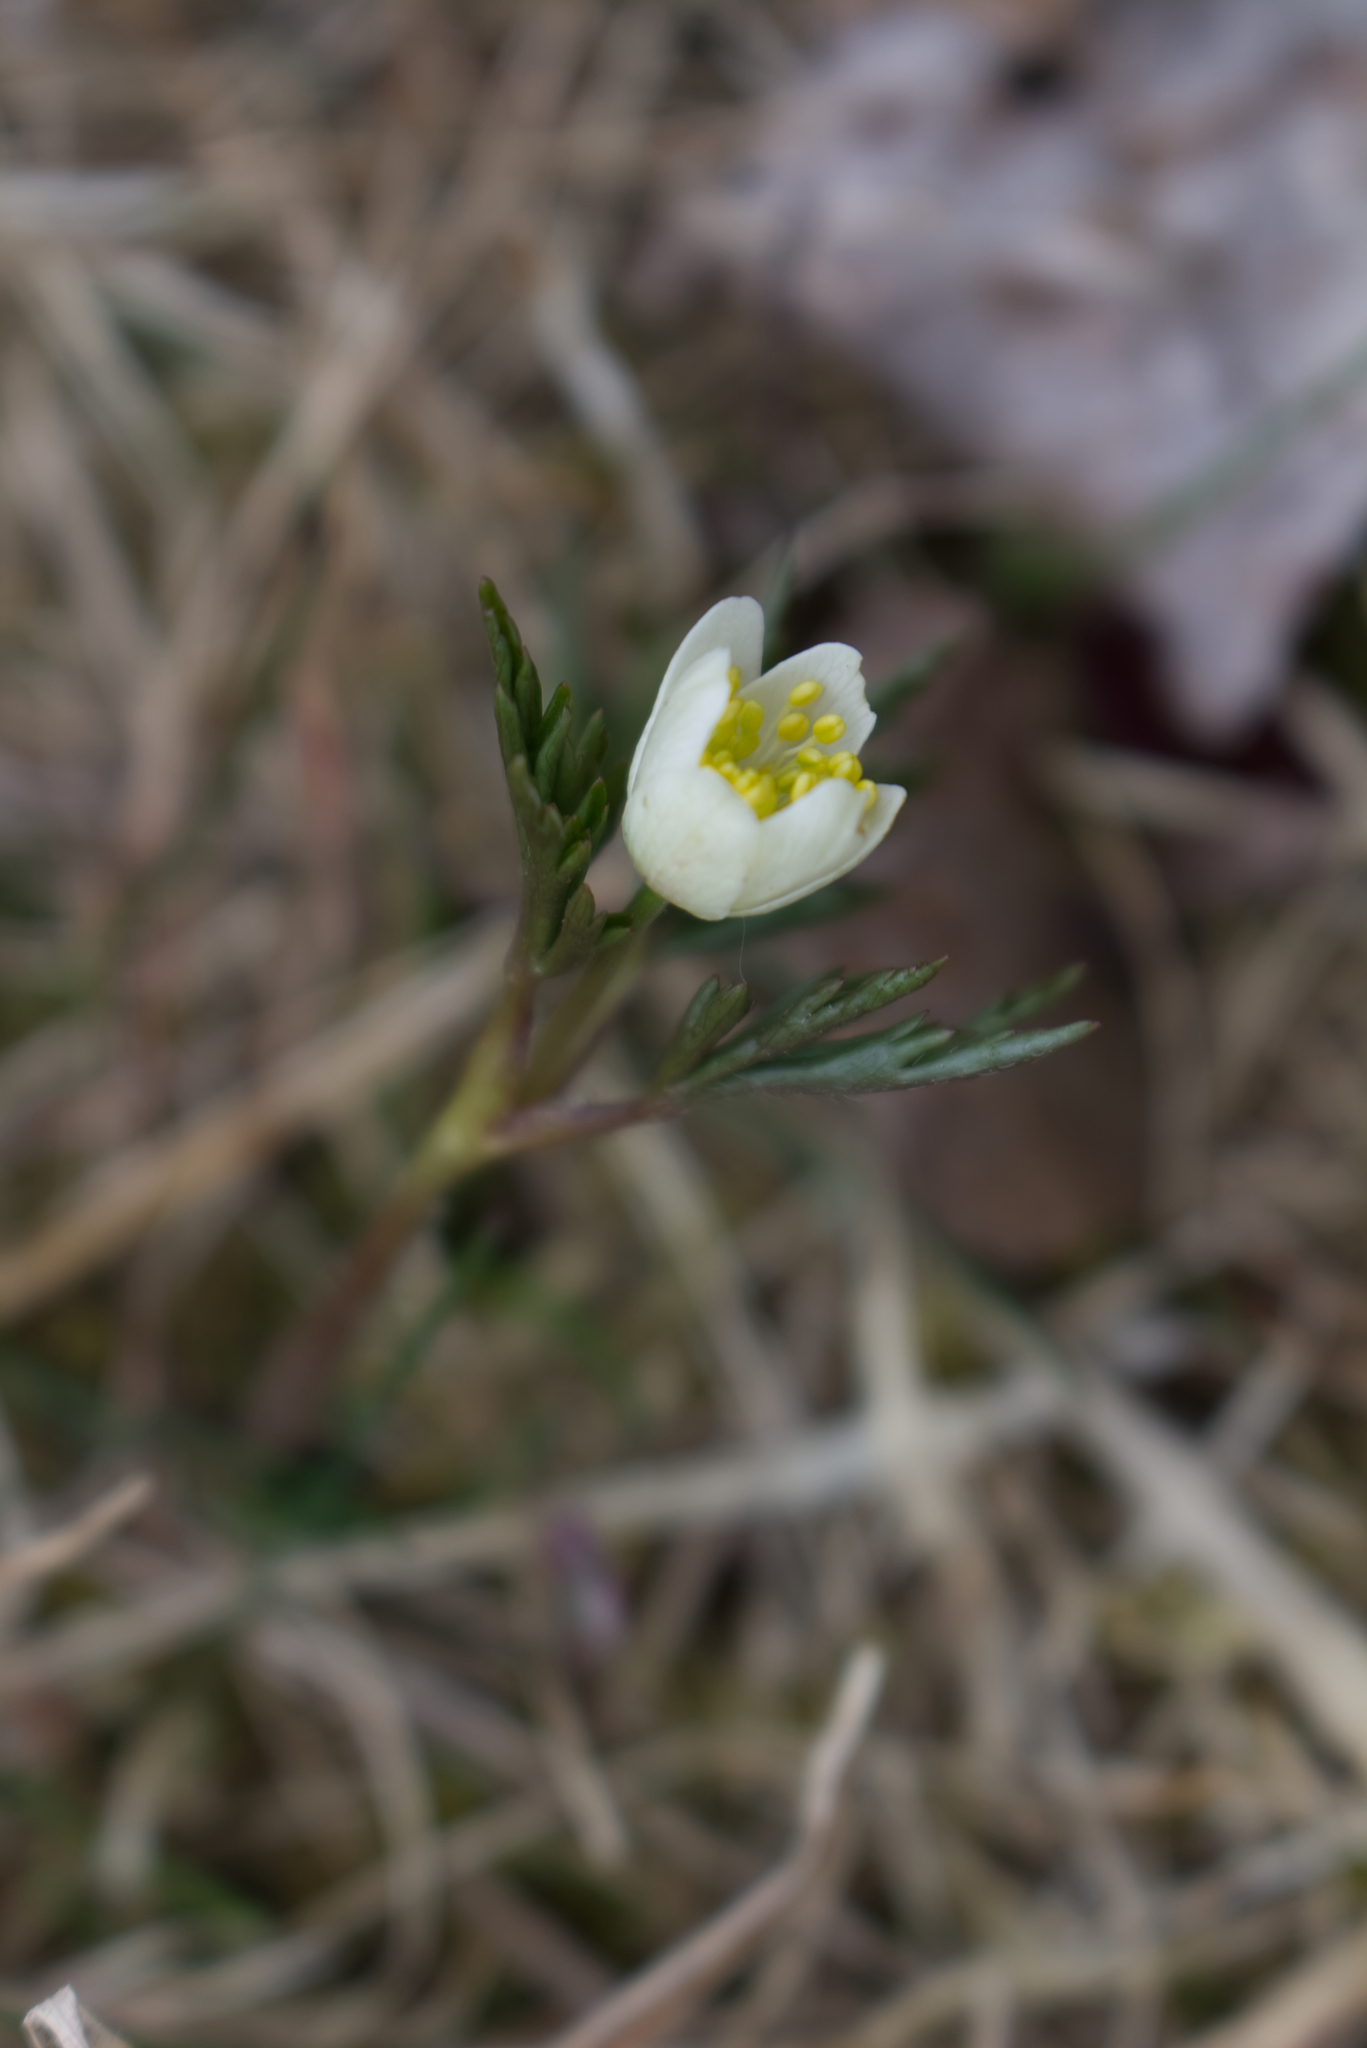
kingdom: Plantae
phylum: Tracheophyta
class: Magnoliopsida
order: Ranunculales
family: Ranunculaceae
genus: Anemone
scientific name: Anemone nemorosa
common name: Wood anemone
